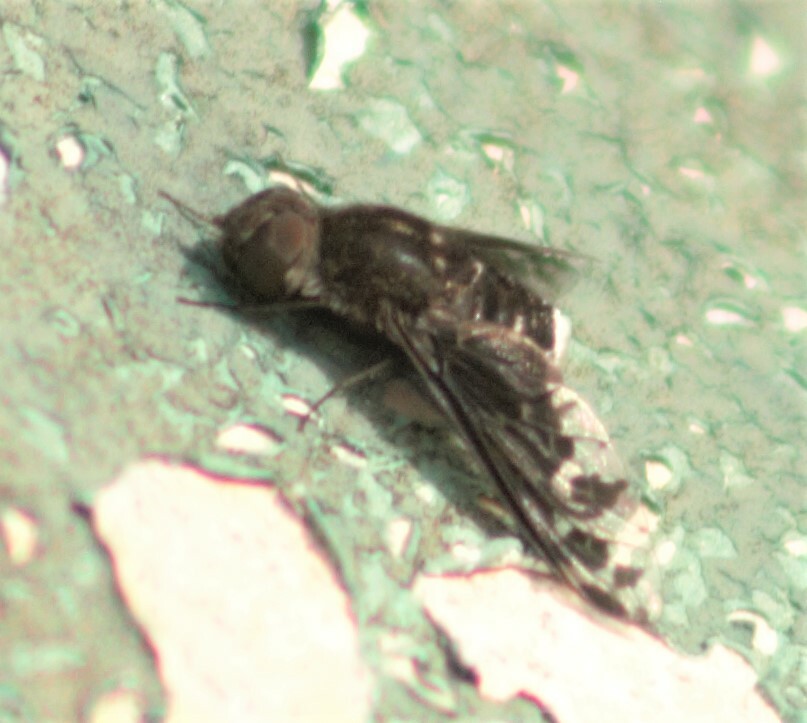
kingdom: Animalia
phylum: Arthropoda
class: Insecta
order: Diptera
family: Bombyliidae
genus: Anthrax
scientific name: Anthrax maculata
